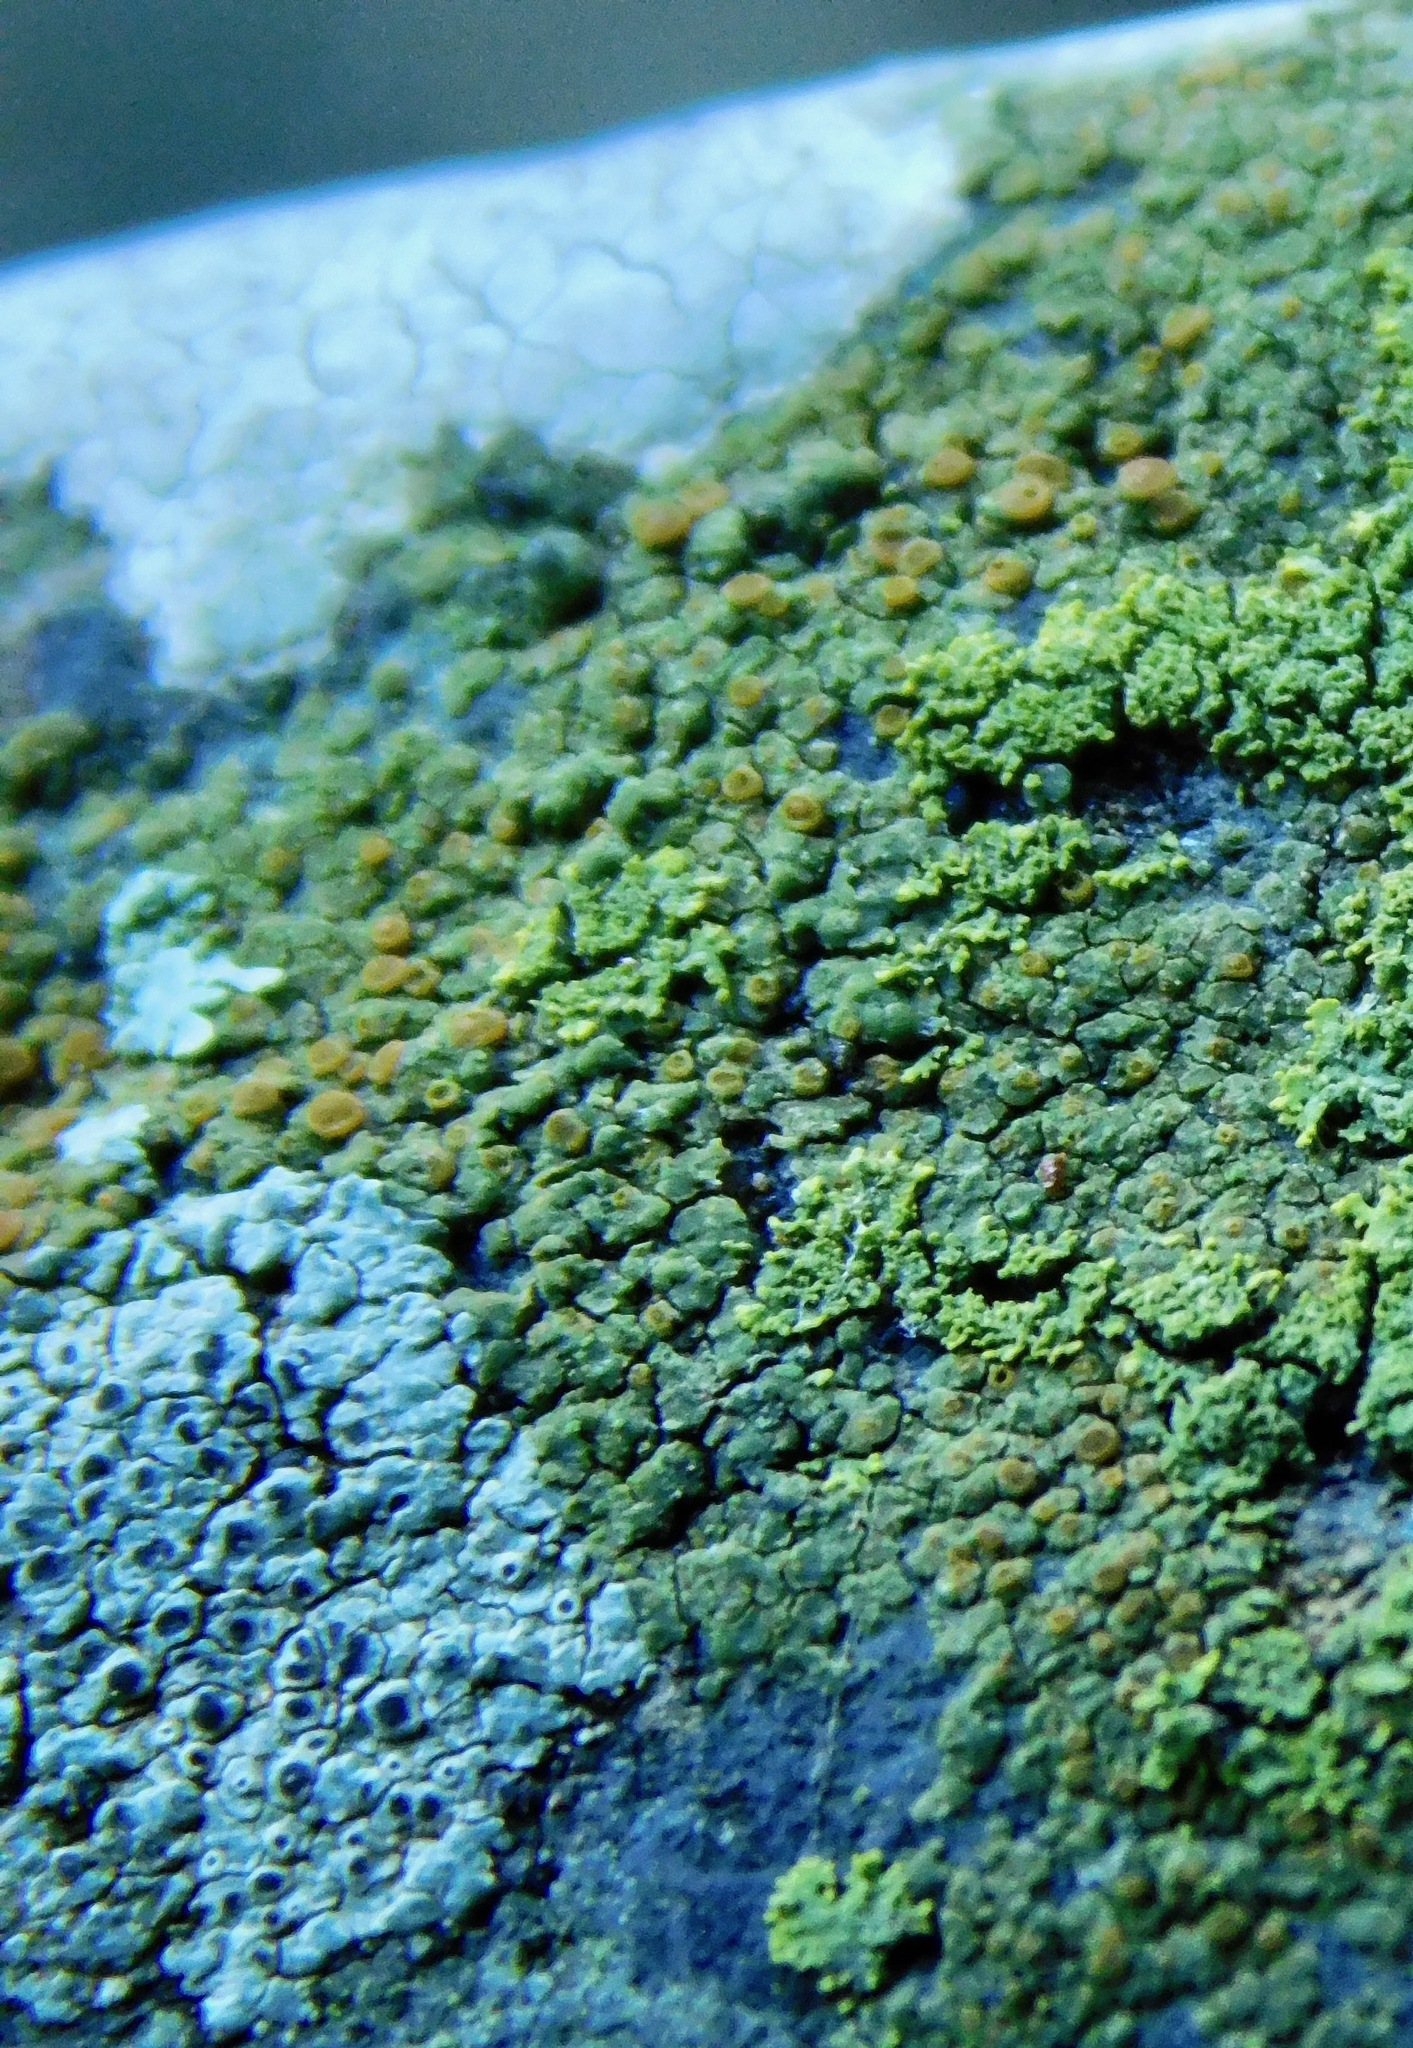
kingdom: Fungi
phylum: Ascomycota
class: Lecanoromycetes
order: Teloschistales
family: Teloschistaceae
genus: Gyalolechia
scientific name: Gyalolechia flavovirescens
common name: Sulphur firedot
